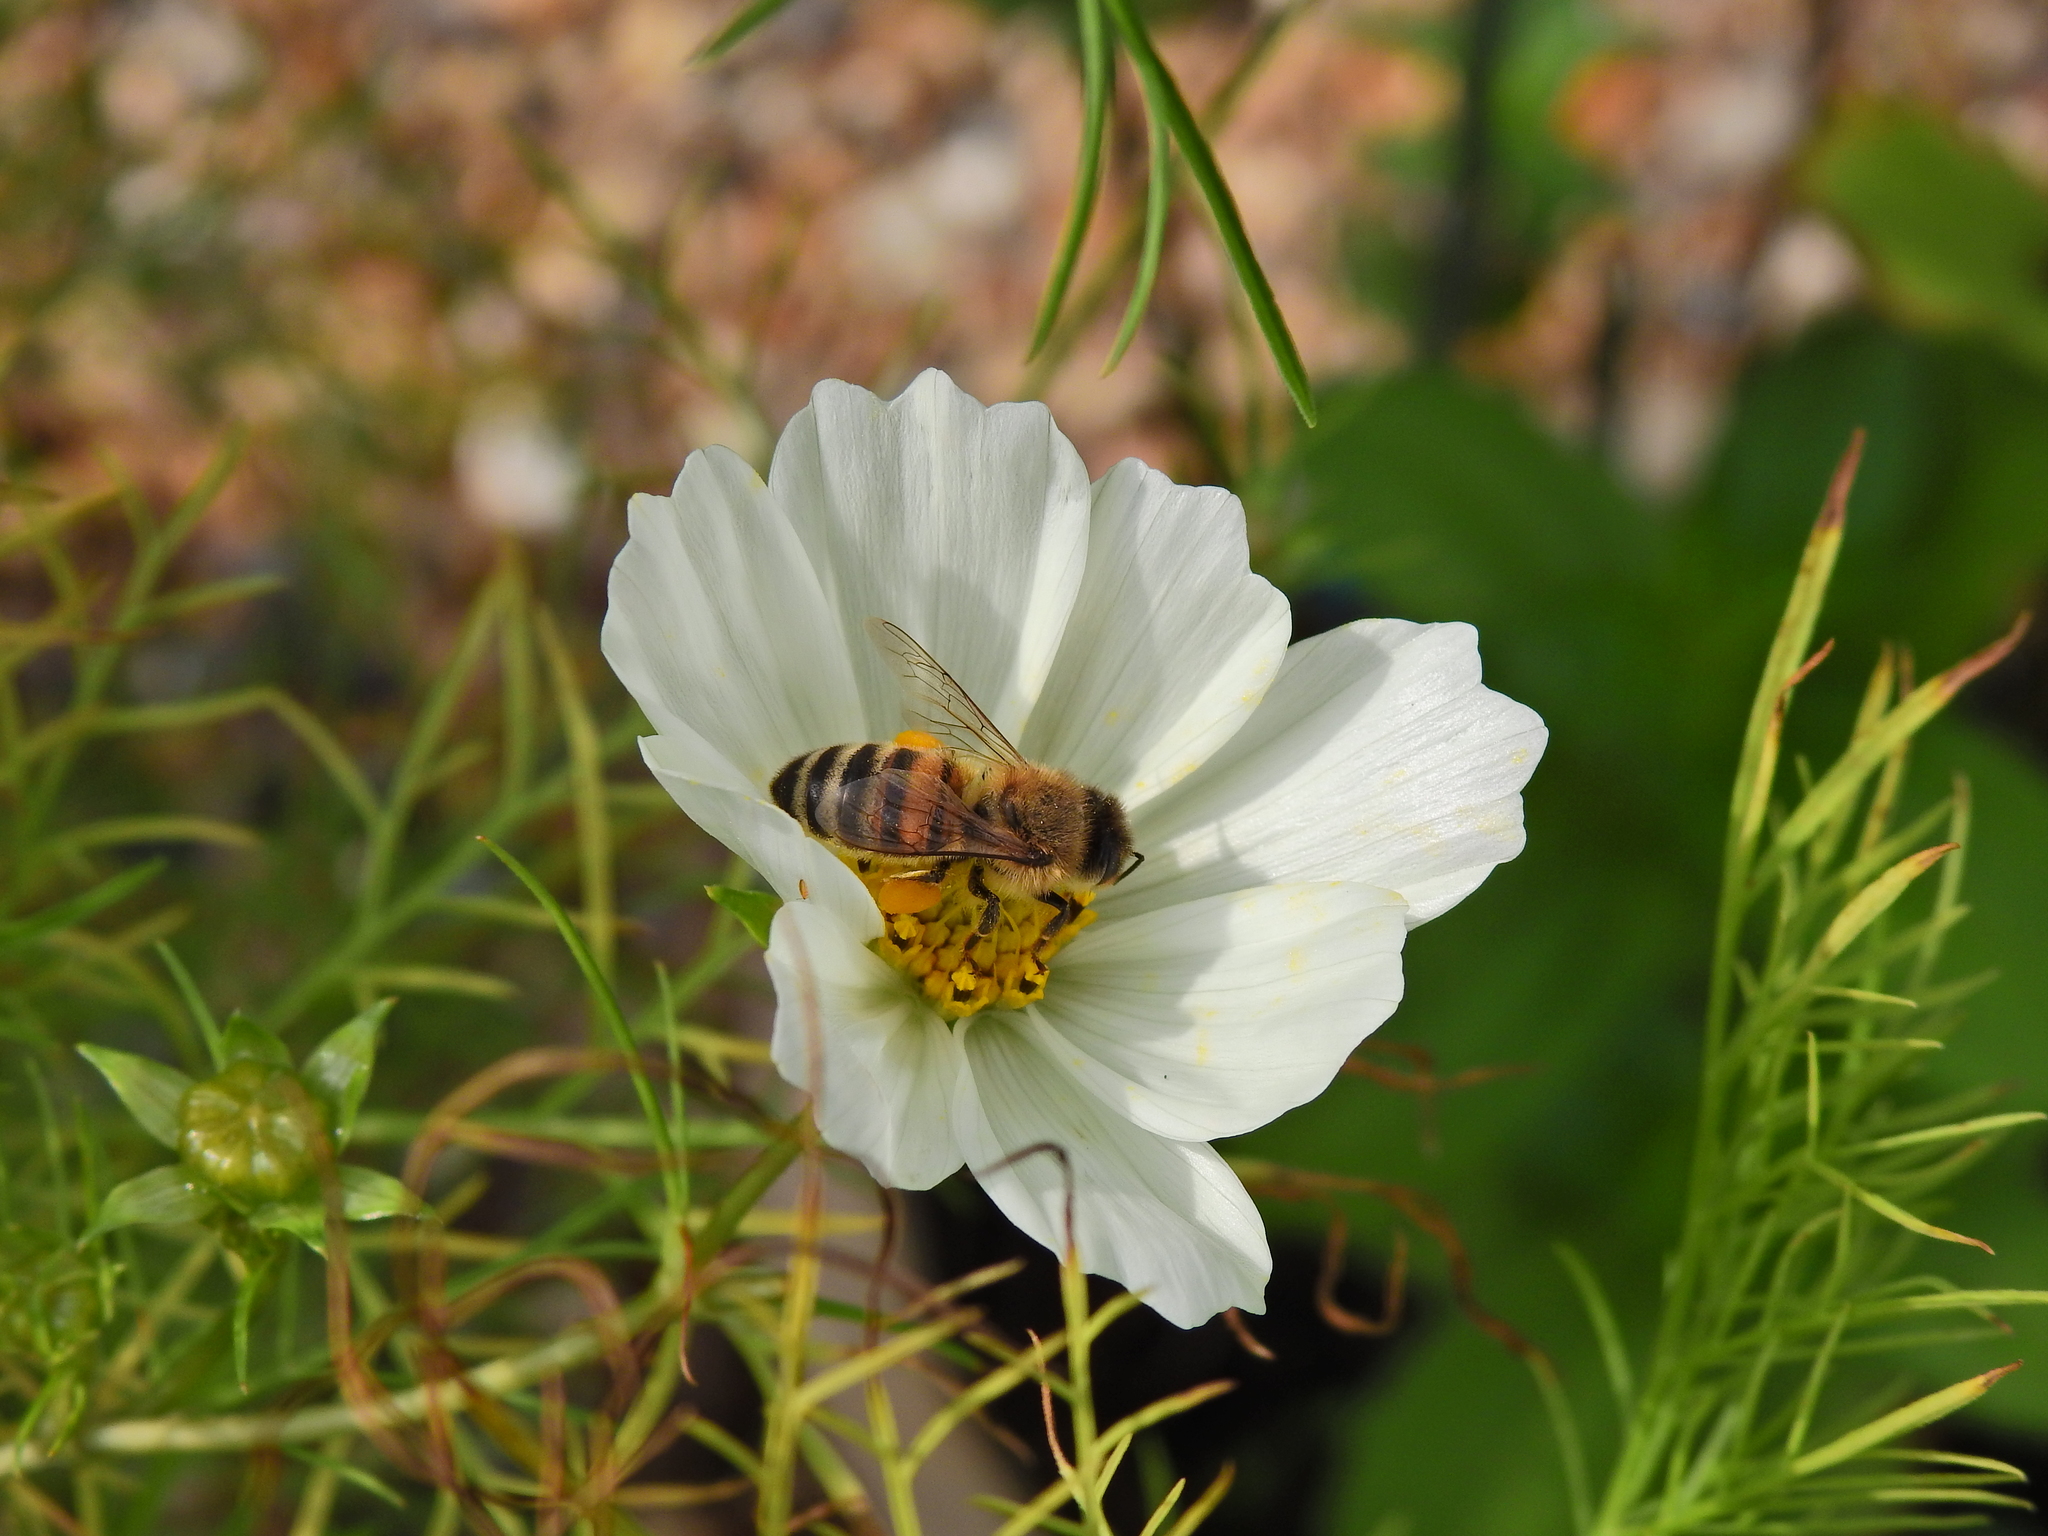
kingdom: Animalia
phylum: Arthropoda
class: Insecta
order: Hymenoptera
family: Apidae
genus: Apis
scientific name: Apis mellifera
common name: Honey bee
